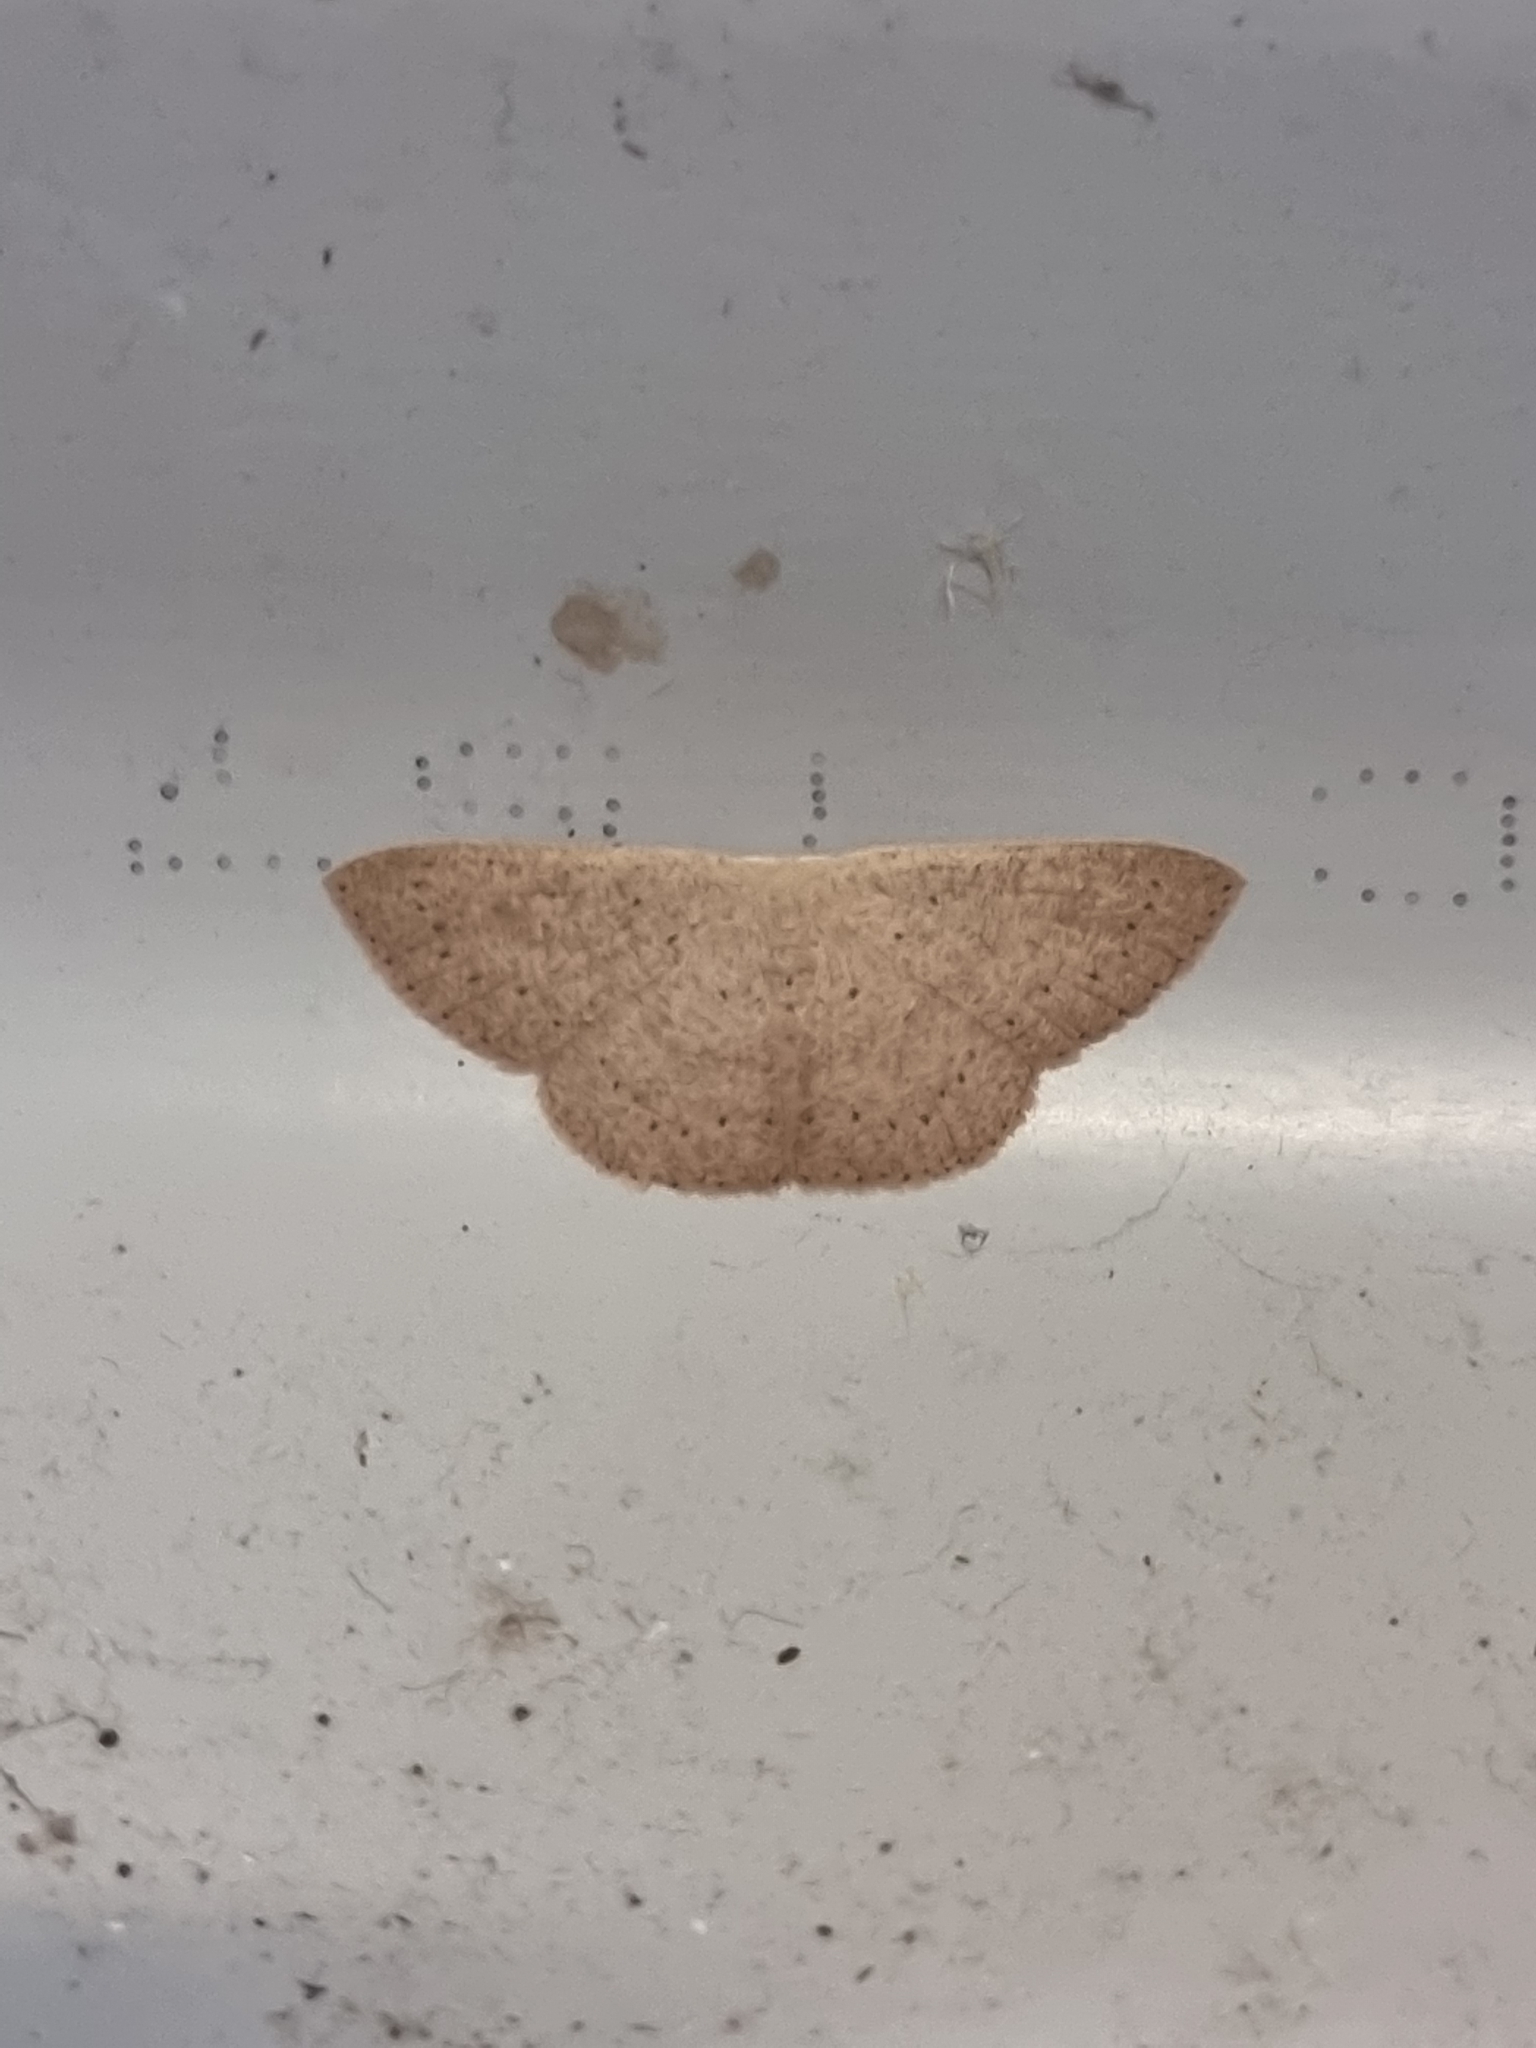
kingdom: Animalia
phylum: Arthropoda
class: Insecta
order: Lepidoptera
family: Geometridae
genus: Cyclophora
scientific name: Cyclophora obstataria
